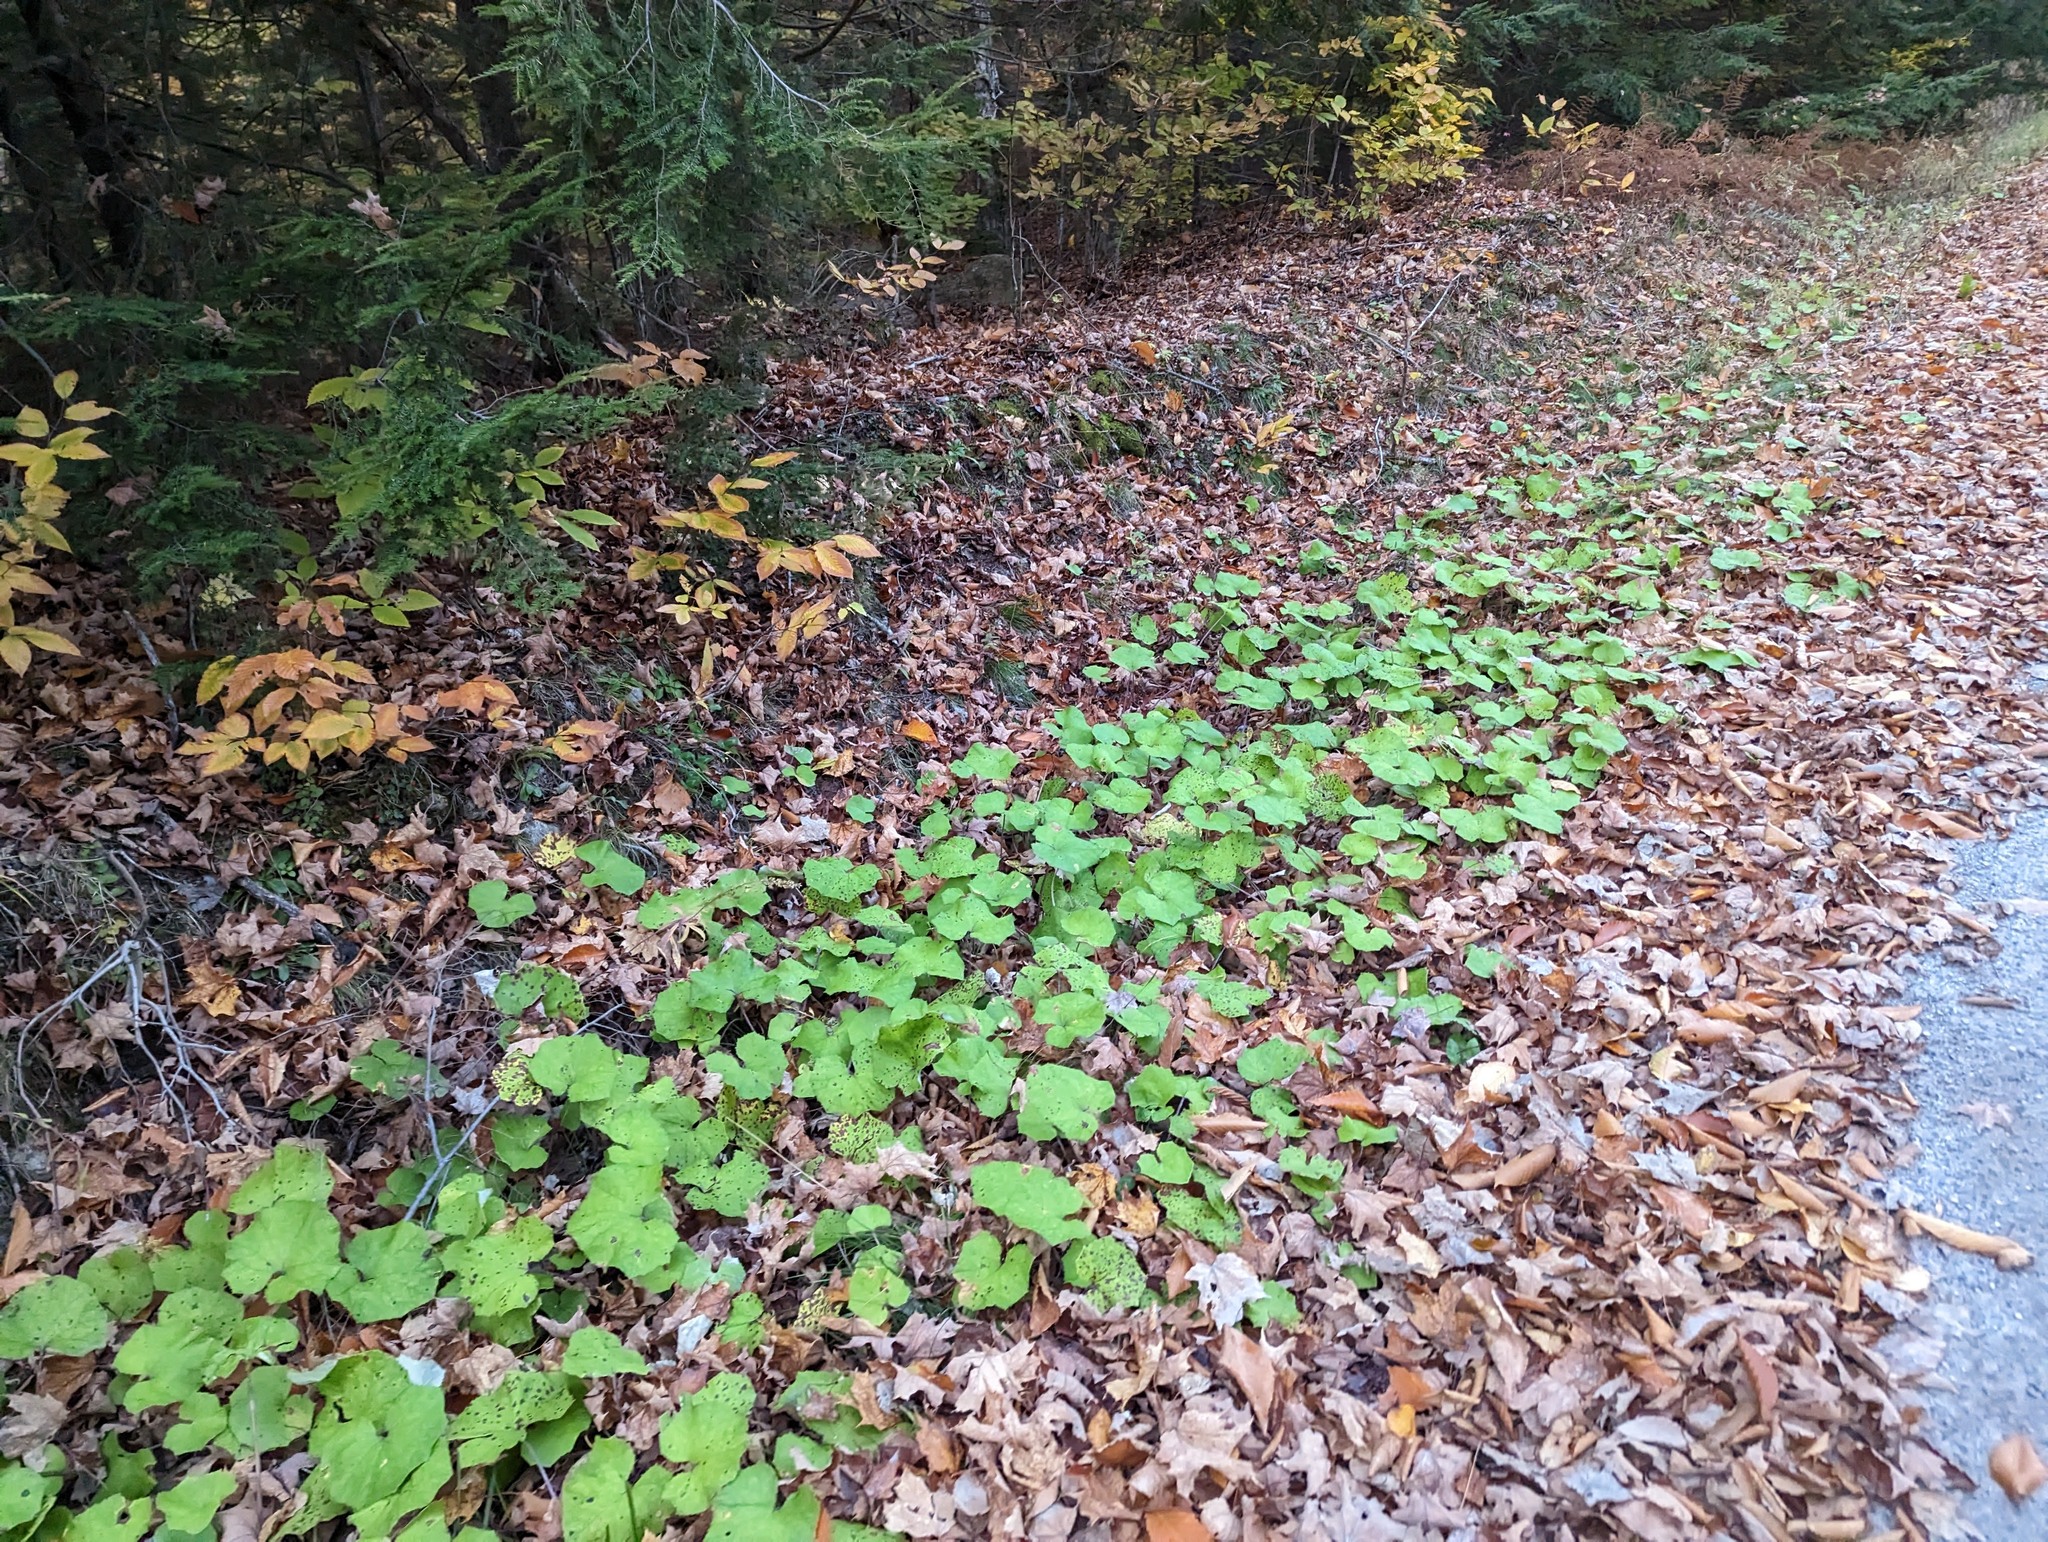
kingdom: Plantae
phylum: Tracheophyta
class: Magnoliopsida
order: Asterales
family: Asteraceae
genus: Tussilago
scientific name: Tussilago farfara
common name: Coltsfoot
